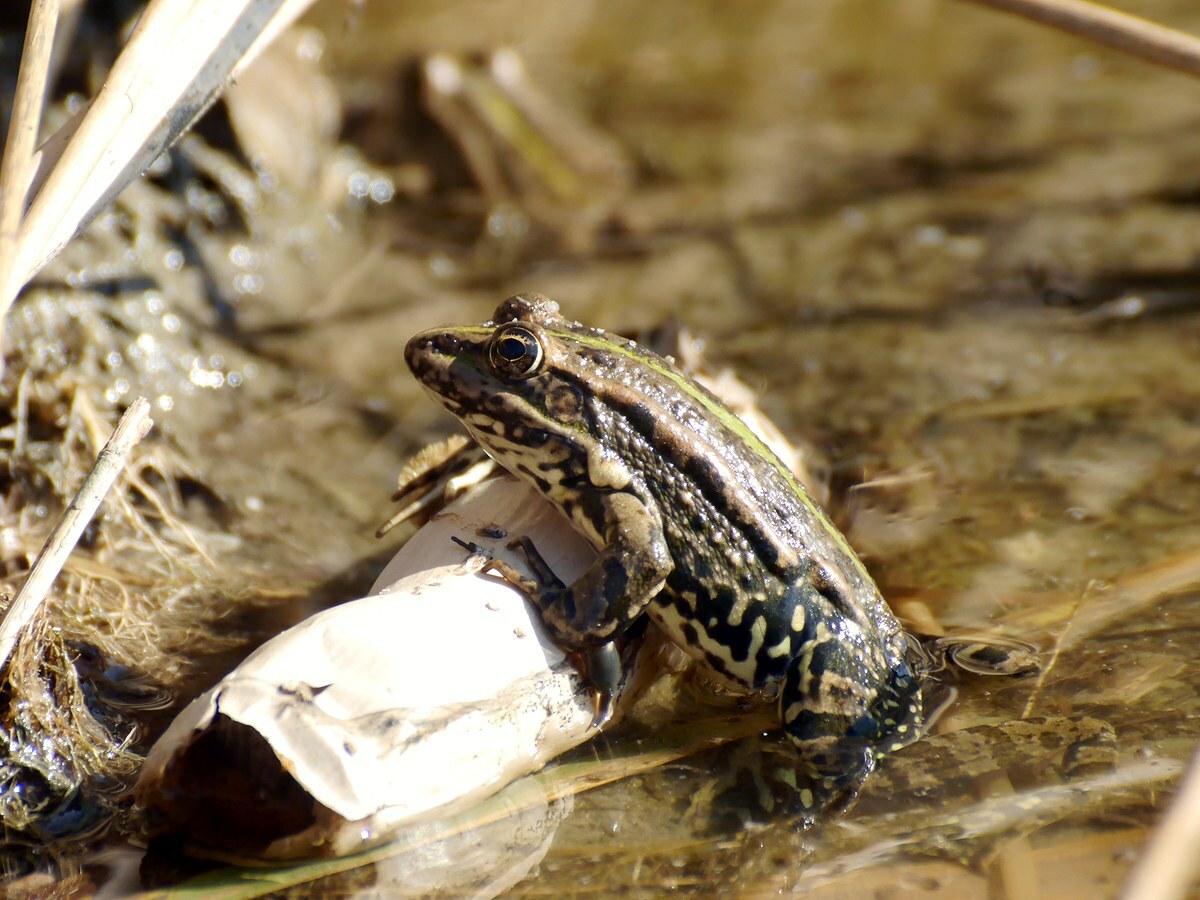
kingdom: Animalia
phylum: Chordata
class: Amphibia
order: Anura
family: Ranidae
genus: Pelophylax
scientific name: Pelophylax ridibundus
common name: Marsh frog
